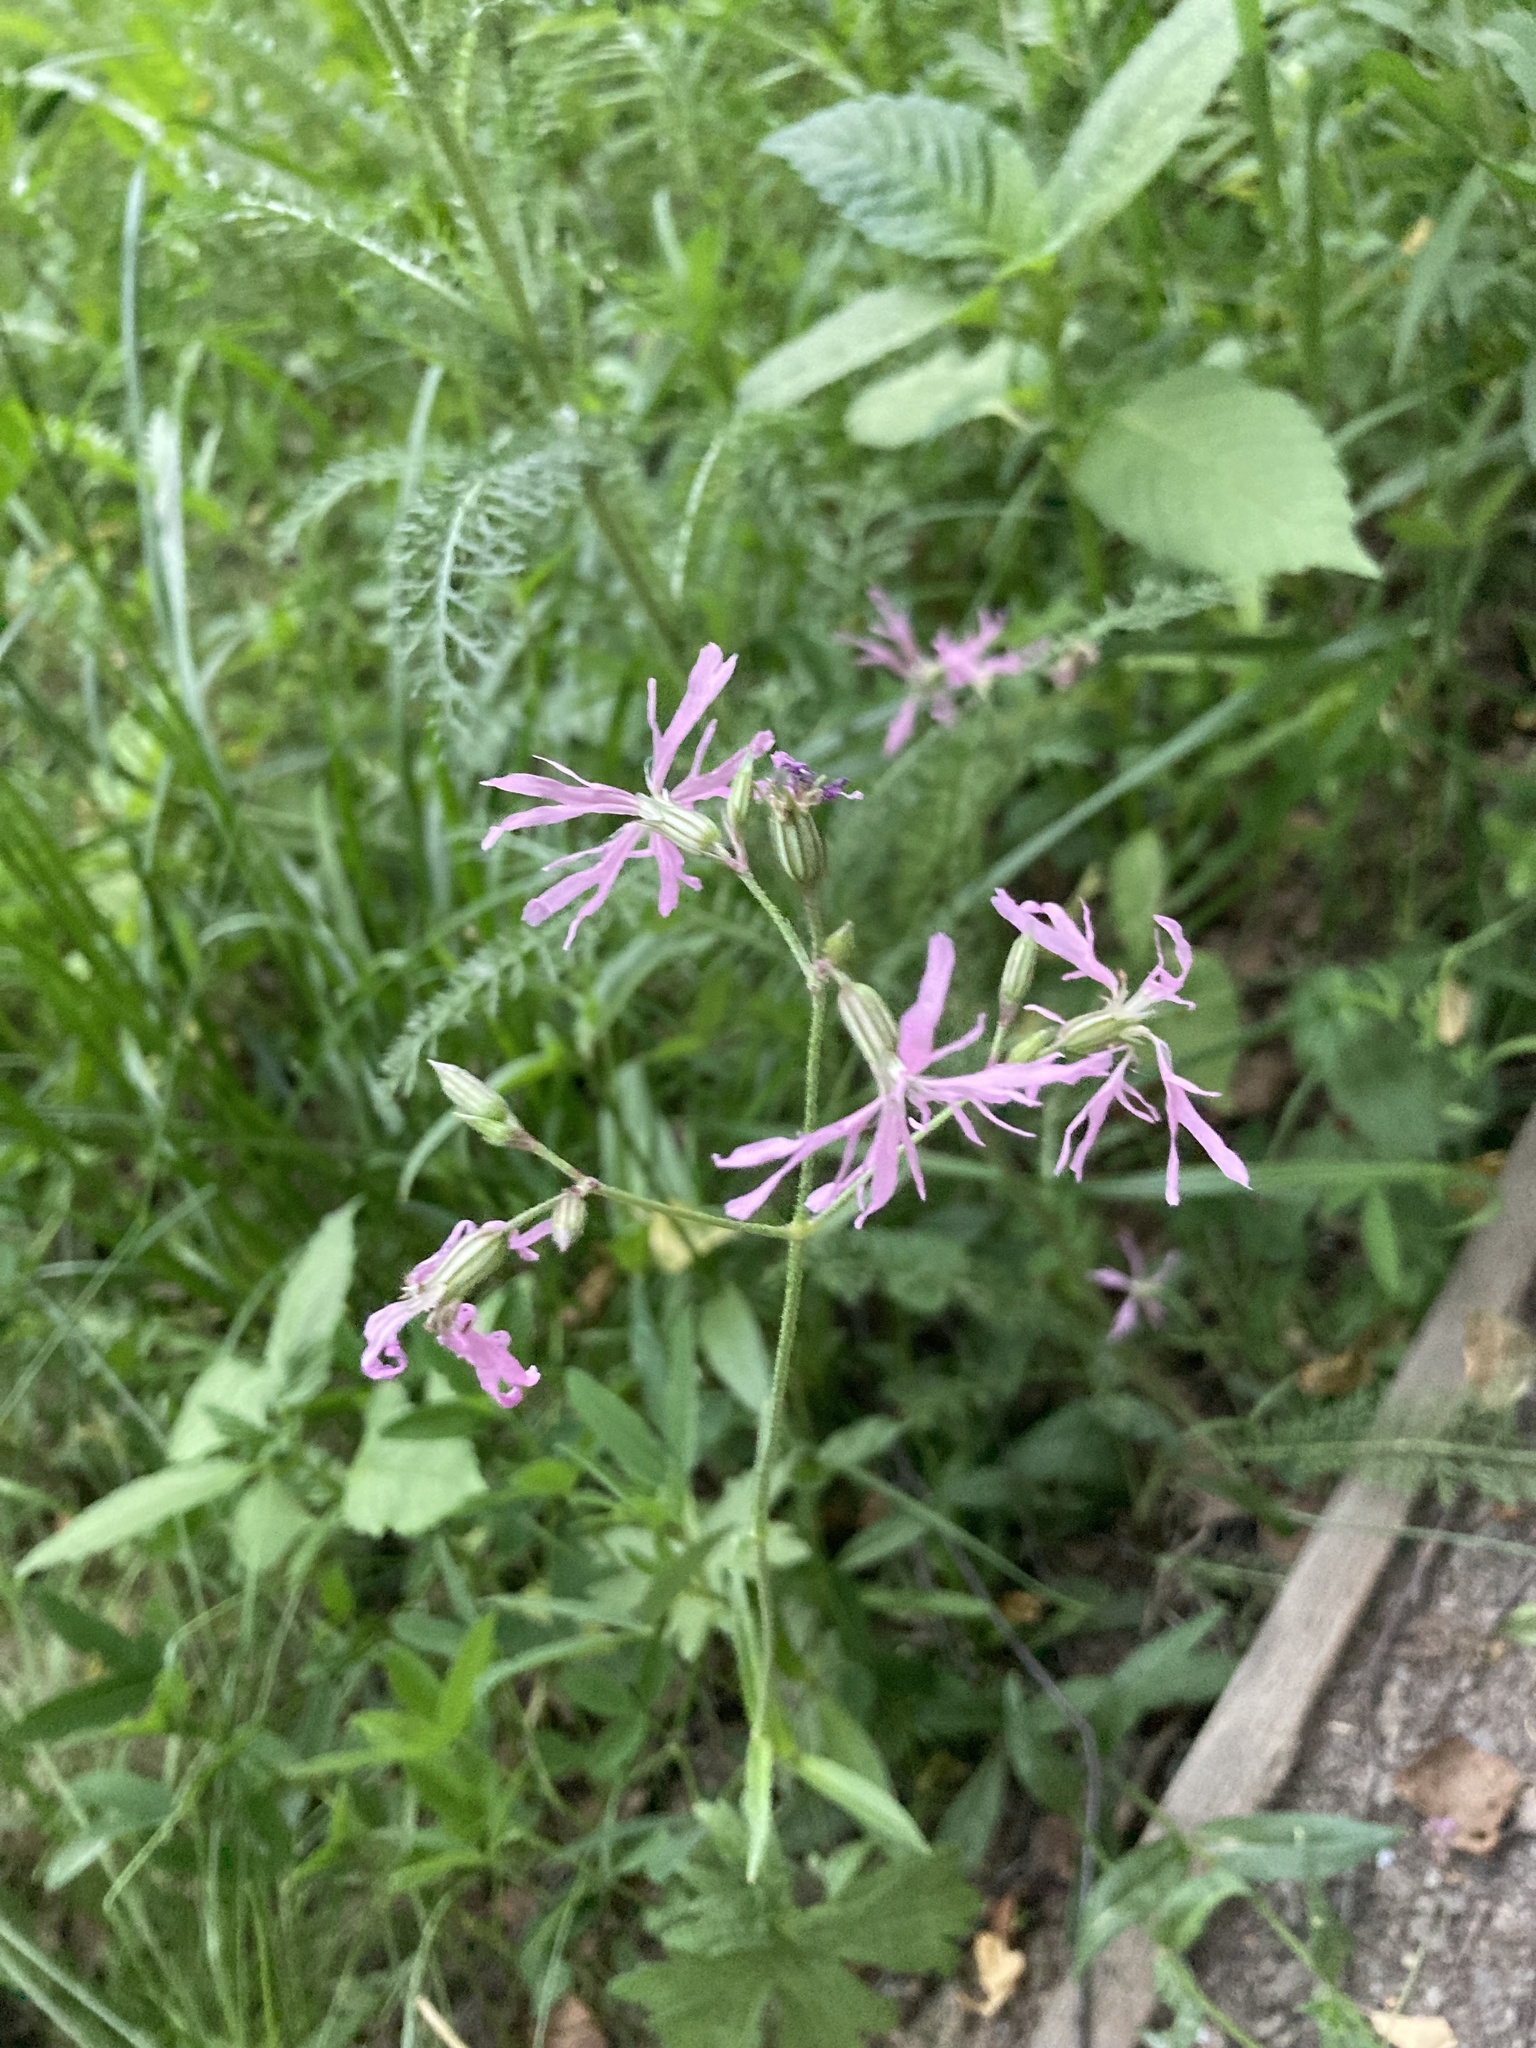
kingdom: Plantae
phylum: Tracheophyta
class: Magnoliopsida
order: Caryophyllales
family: Caryophyllaceae
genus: Silene
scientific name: Silene flos-cuculi
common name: Ragged-robin
